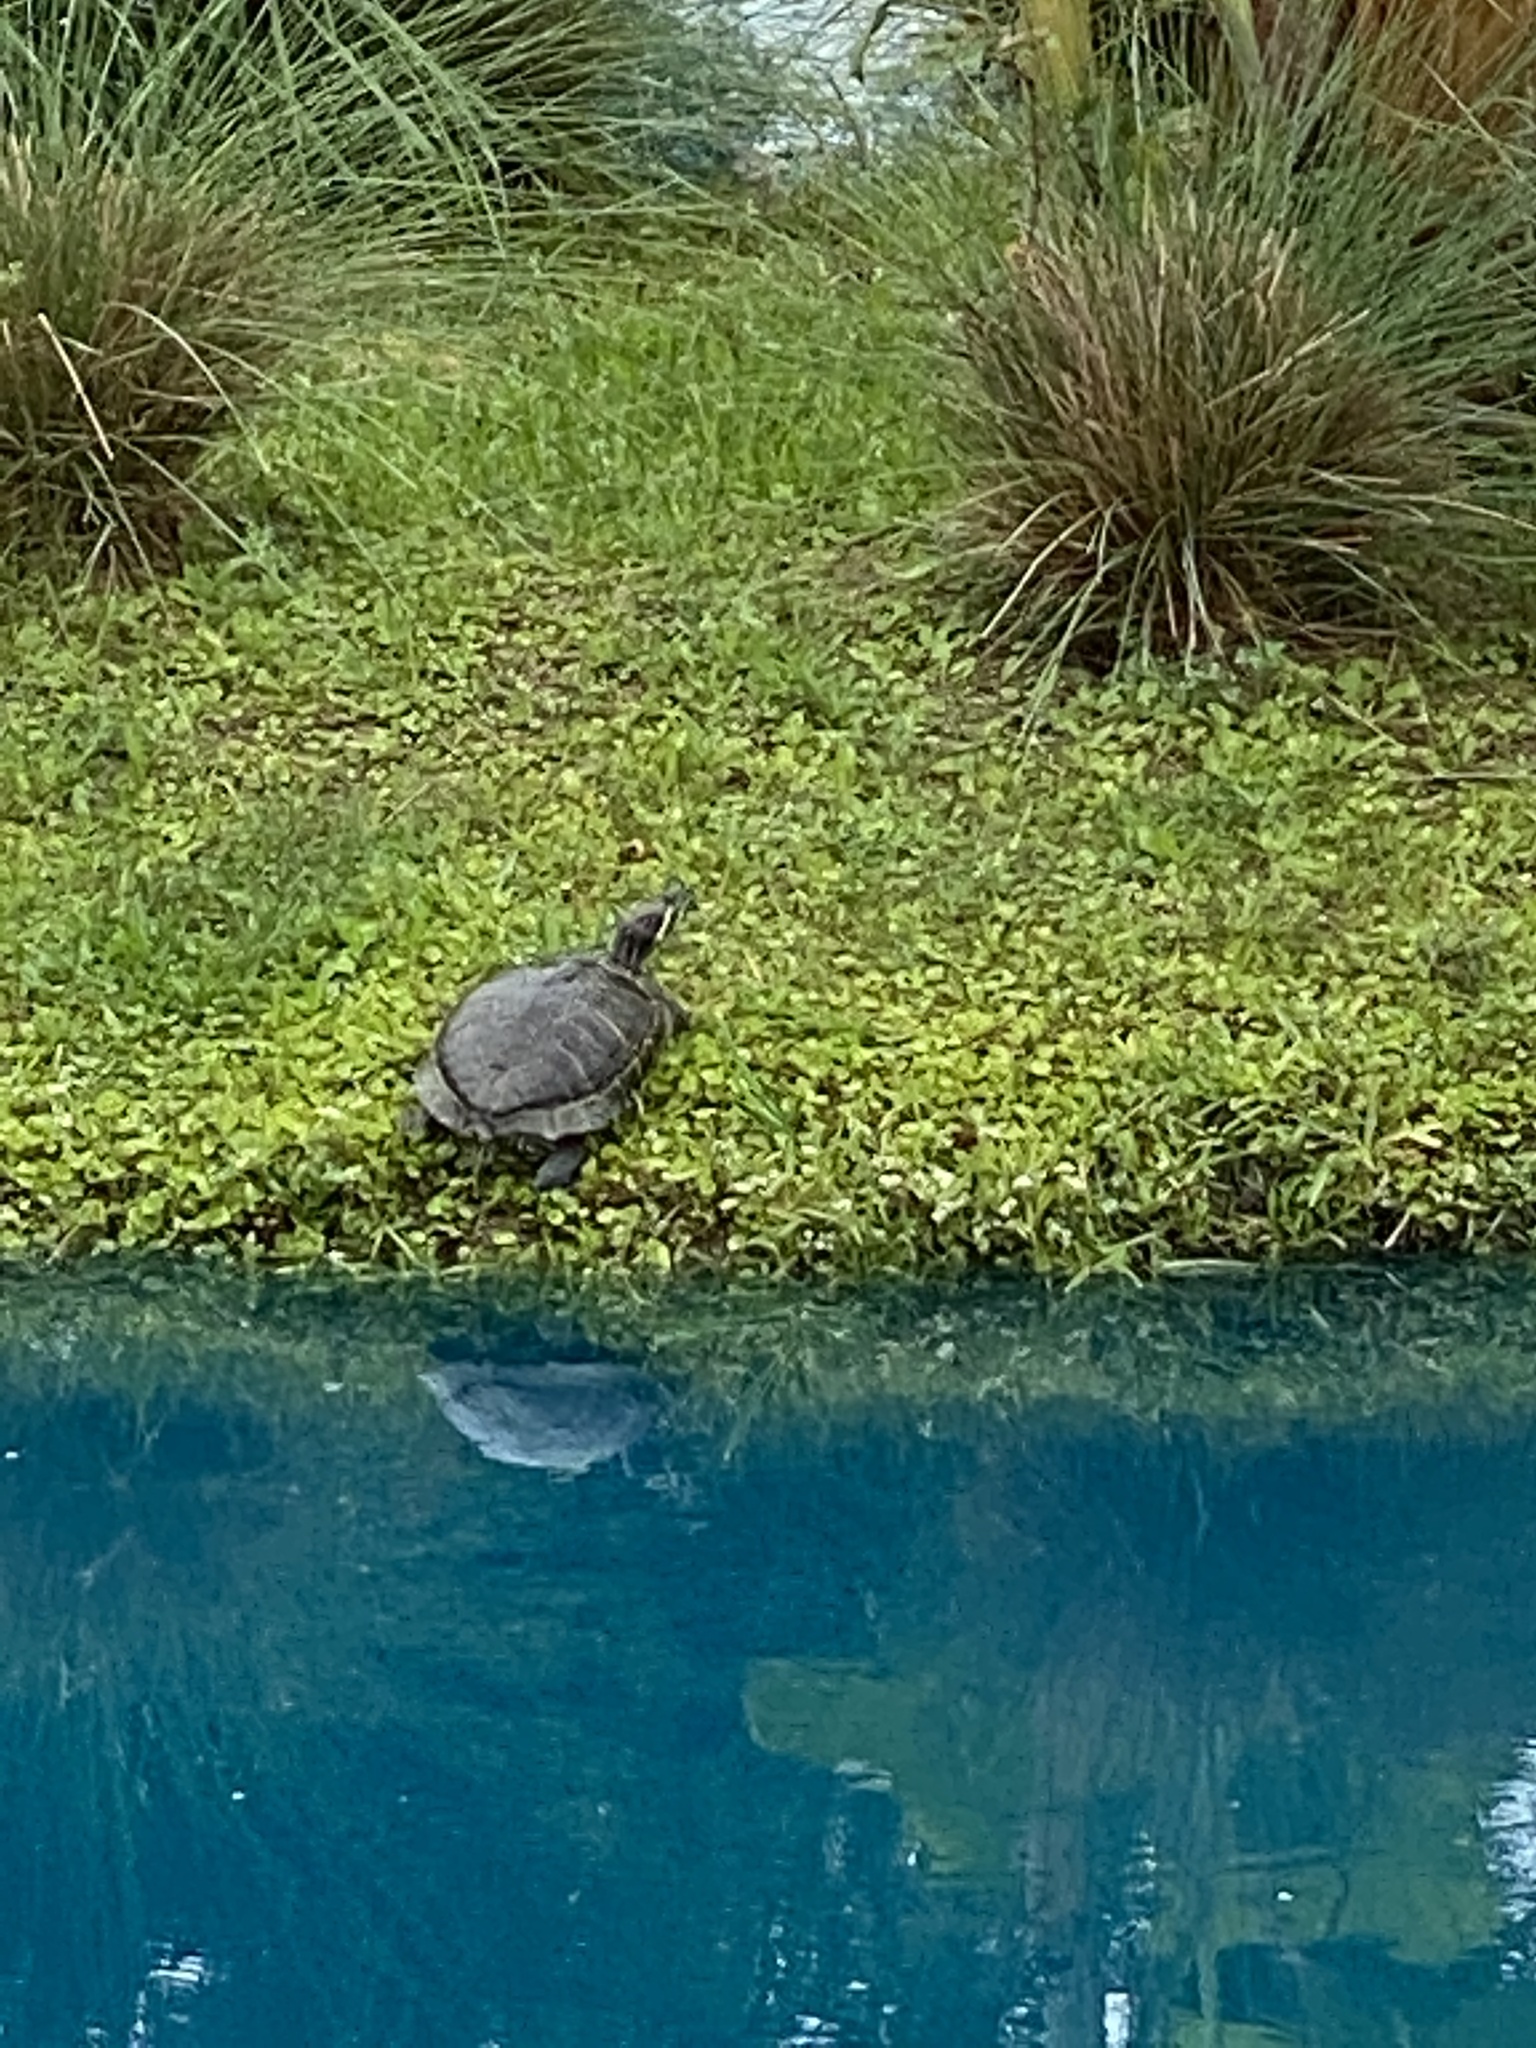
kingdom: Animalia
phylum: Chordata
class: Testudines
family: Emydidae
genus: Trachemys
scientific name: Trachemys scripta
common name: Slider
